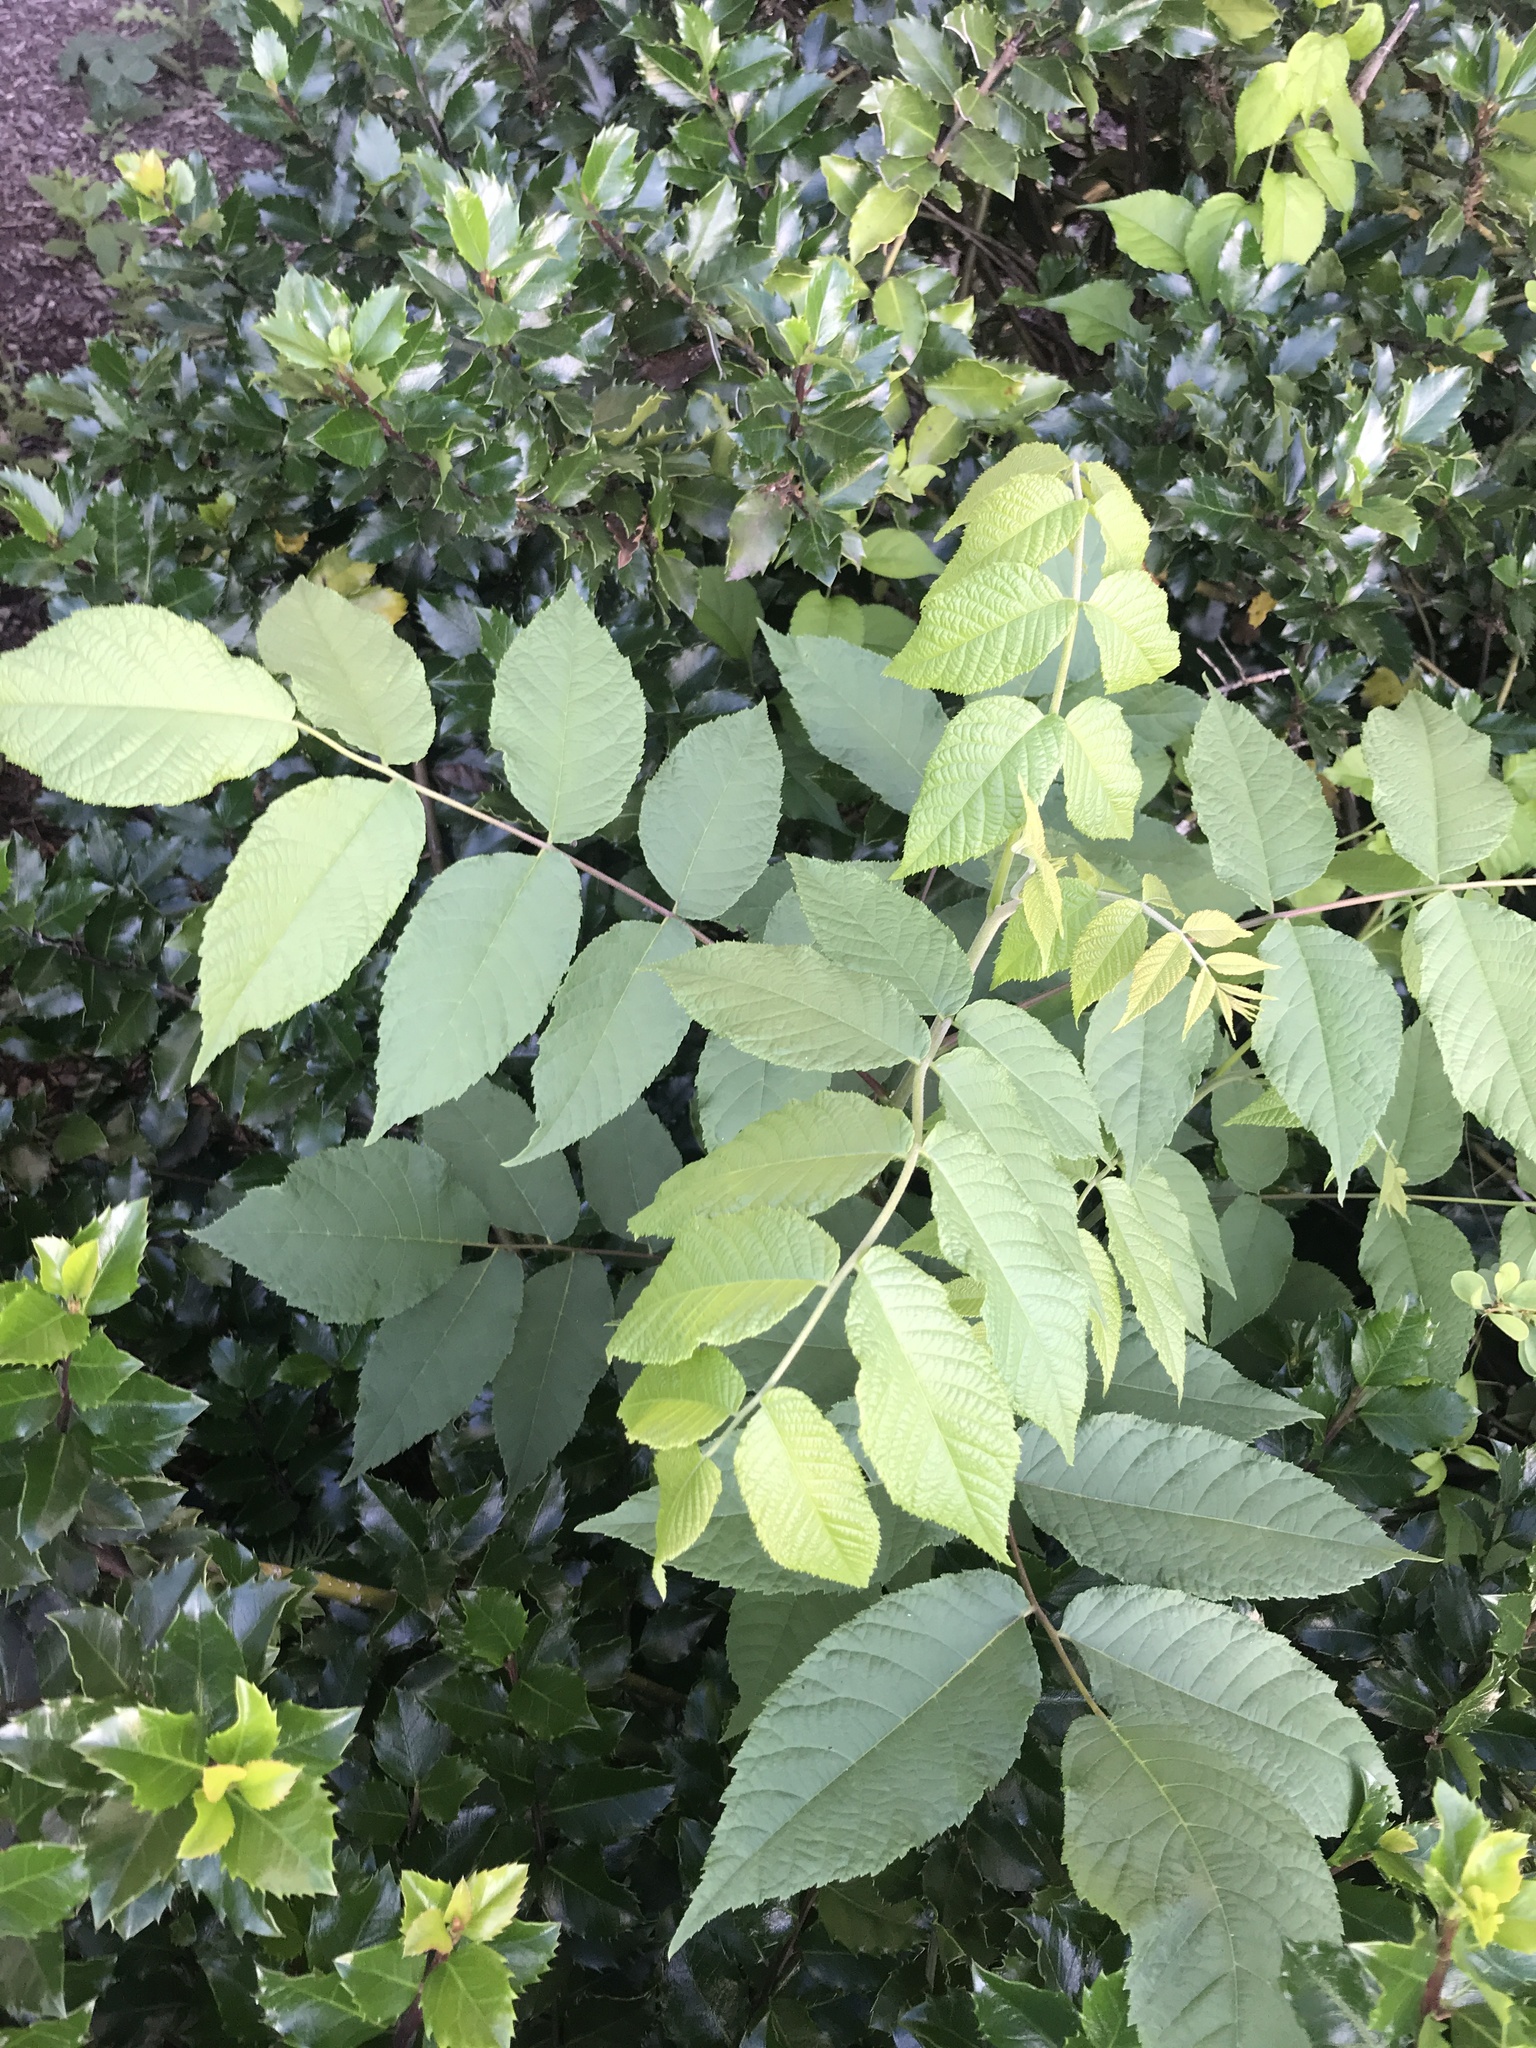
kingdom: Plantae
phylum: Tracheophyta
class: Magnoliopsida
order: Fagales
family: Juglandaceae
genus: Juglans
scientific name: Juglans nigra
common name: Black walnut
